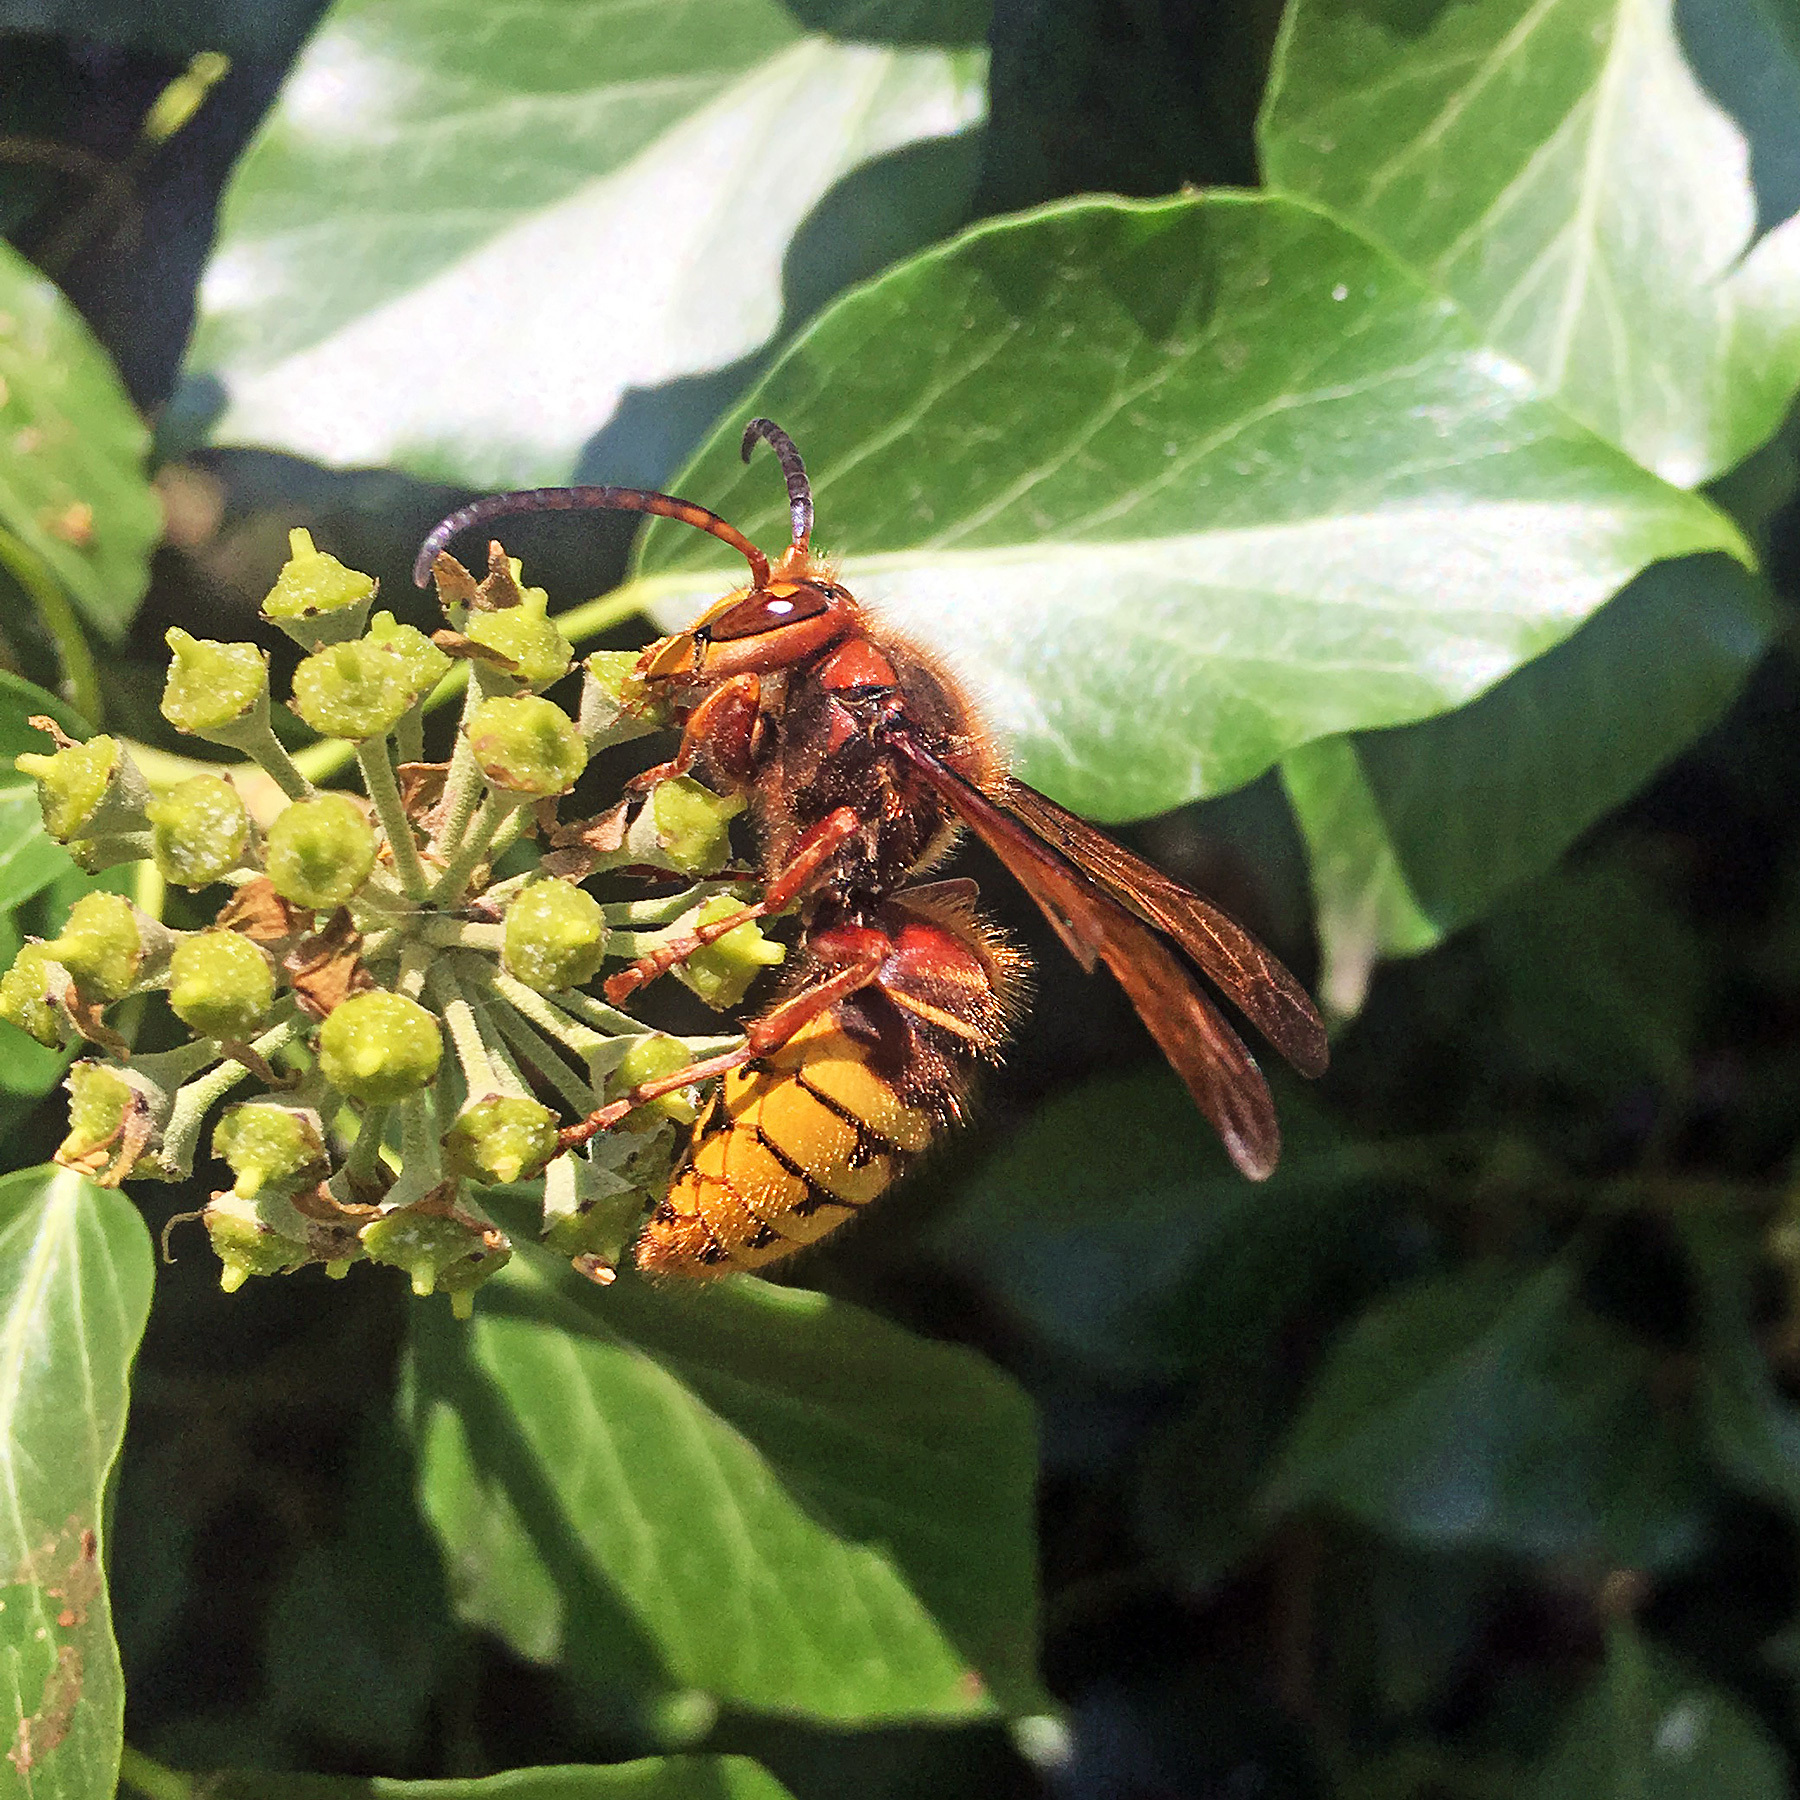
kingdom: Animalia
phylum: Arthropoda
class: Insecta
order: Hymenoptera
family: Vespidae
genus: Vespa
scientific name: Vespa crabro
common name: Hornet
